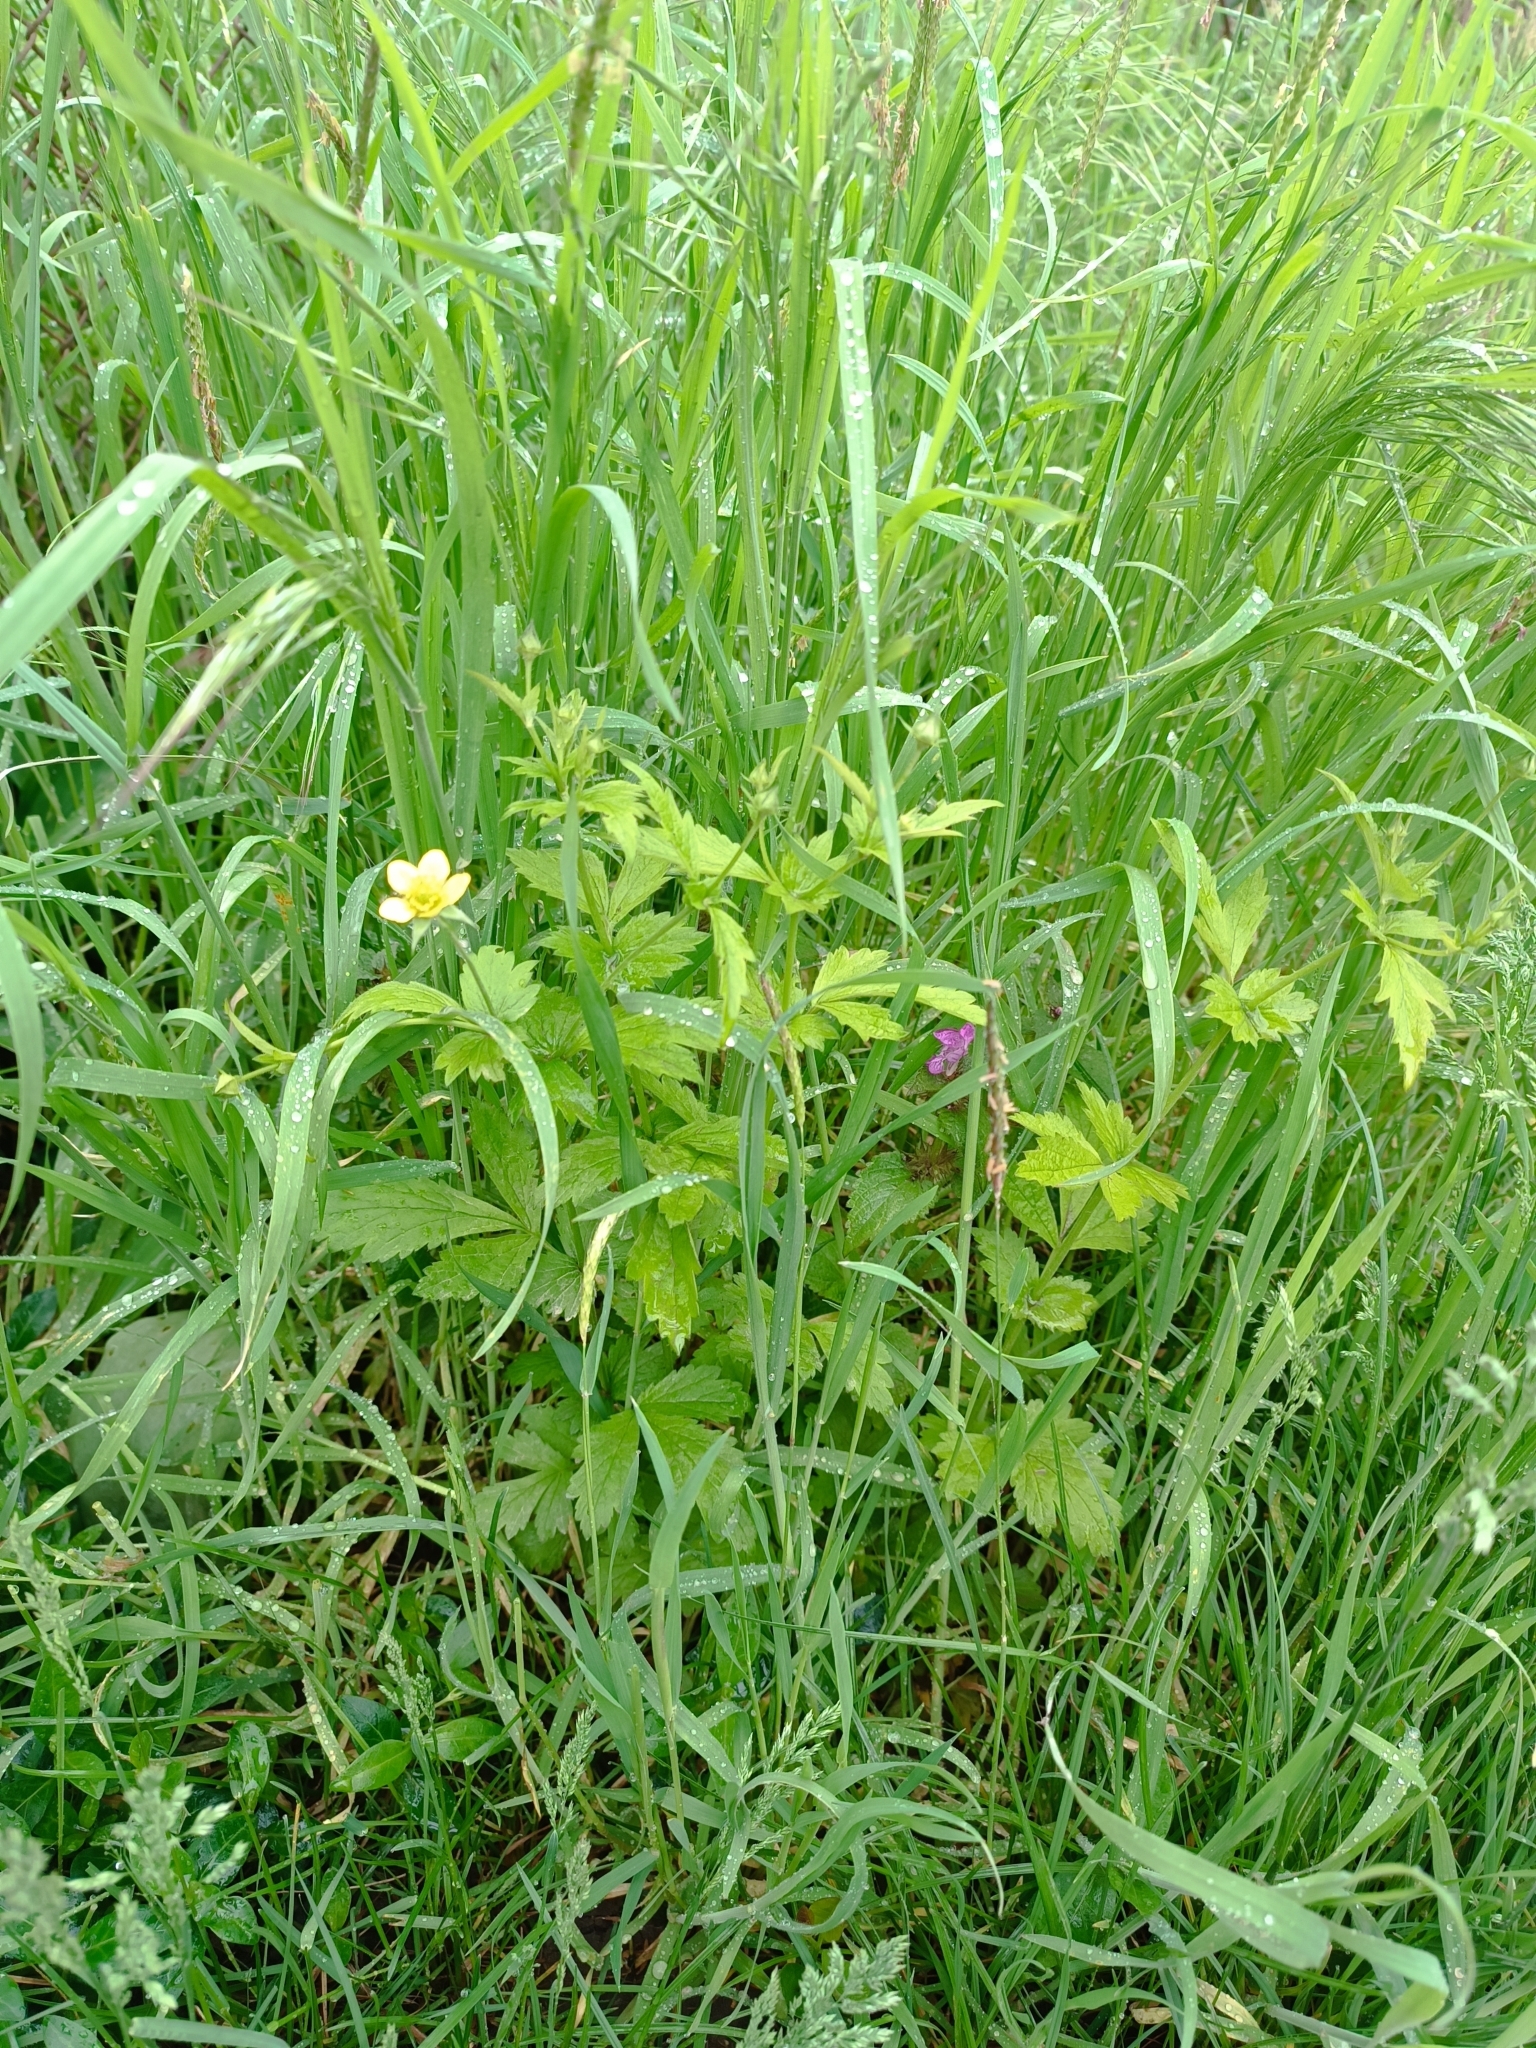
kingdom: Plantae
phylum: Tracheophyta
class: Magnoliopsida
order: Rosales
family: Rosaceae
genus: Geum
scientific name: Geum urbanum
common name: Wood avens
